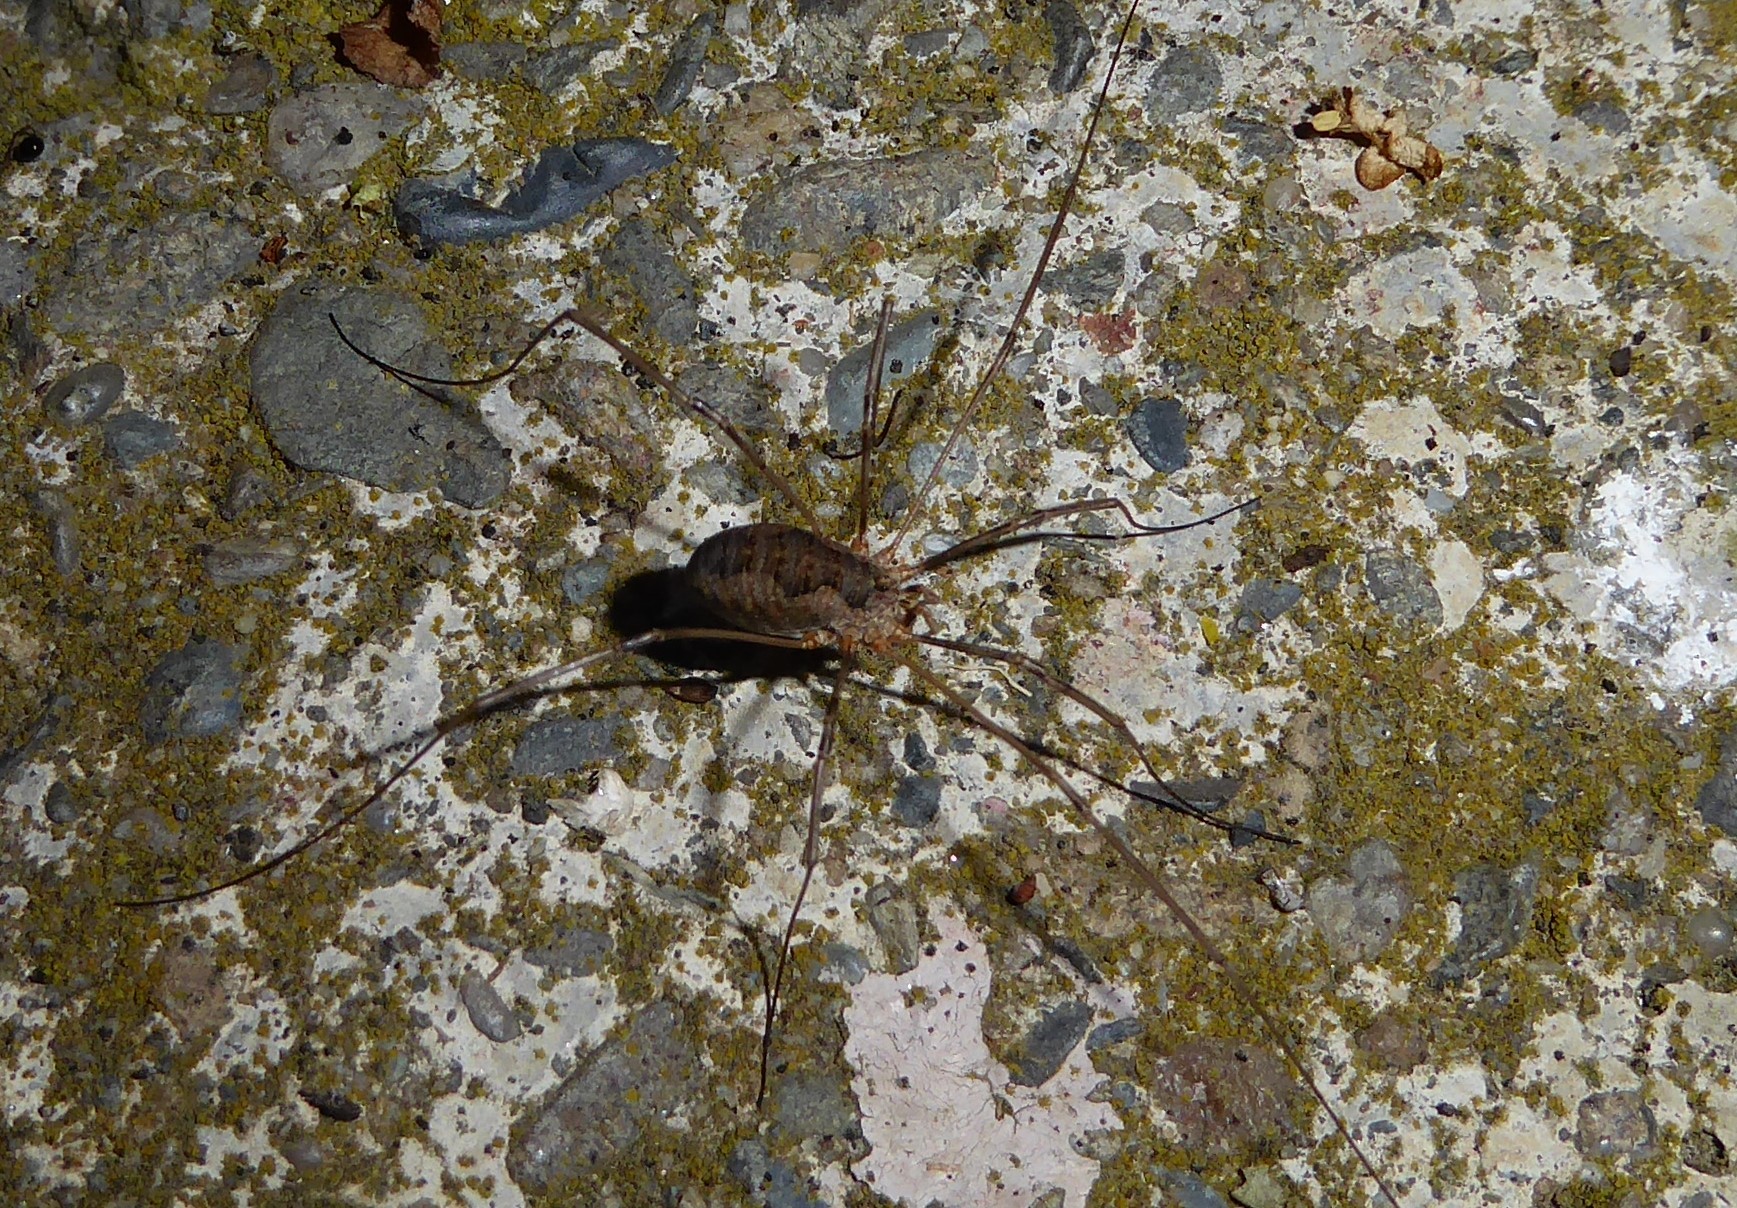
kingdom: Animalia
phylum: Arthropoda
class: Arachnida
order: Opiliones
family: Phalangiidae
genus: Phalangium
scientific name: Phalangium opilio
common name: Daddy longleg
